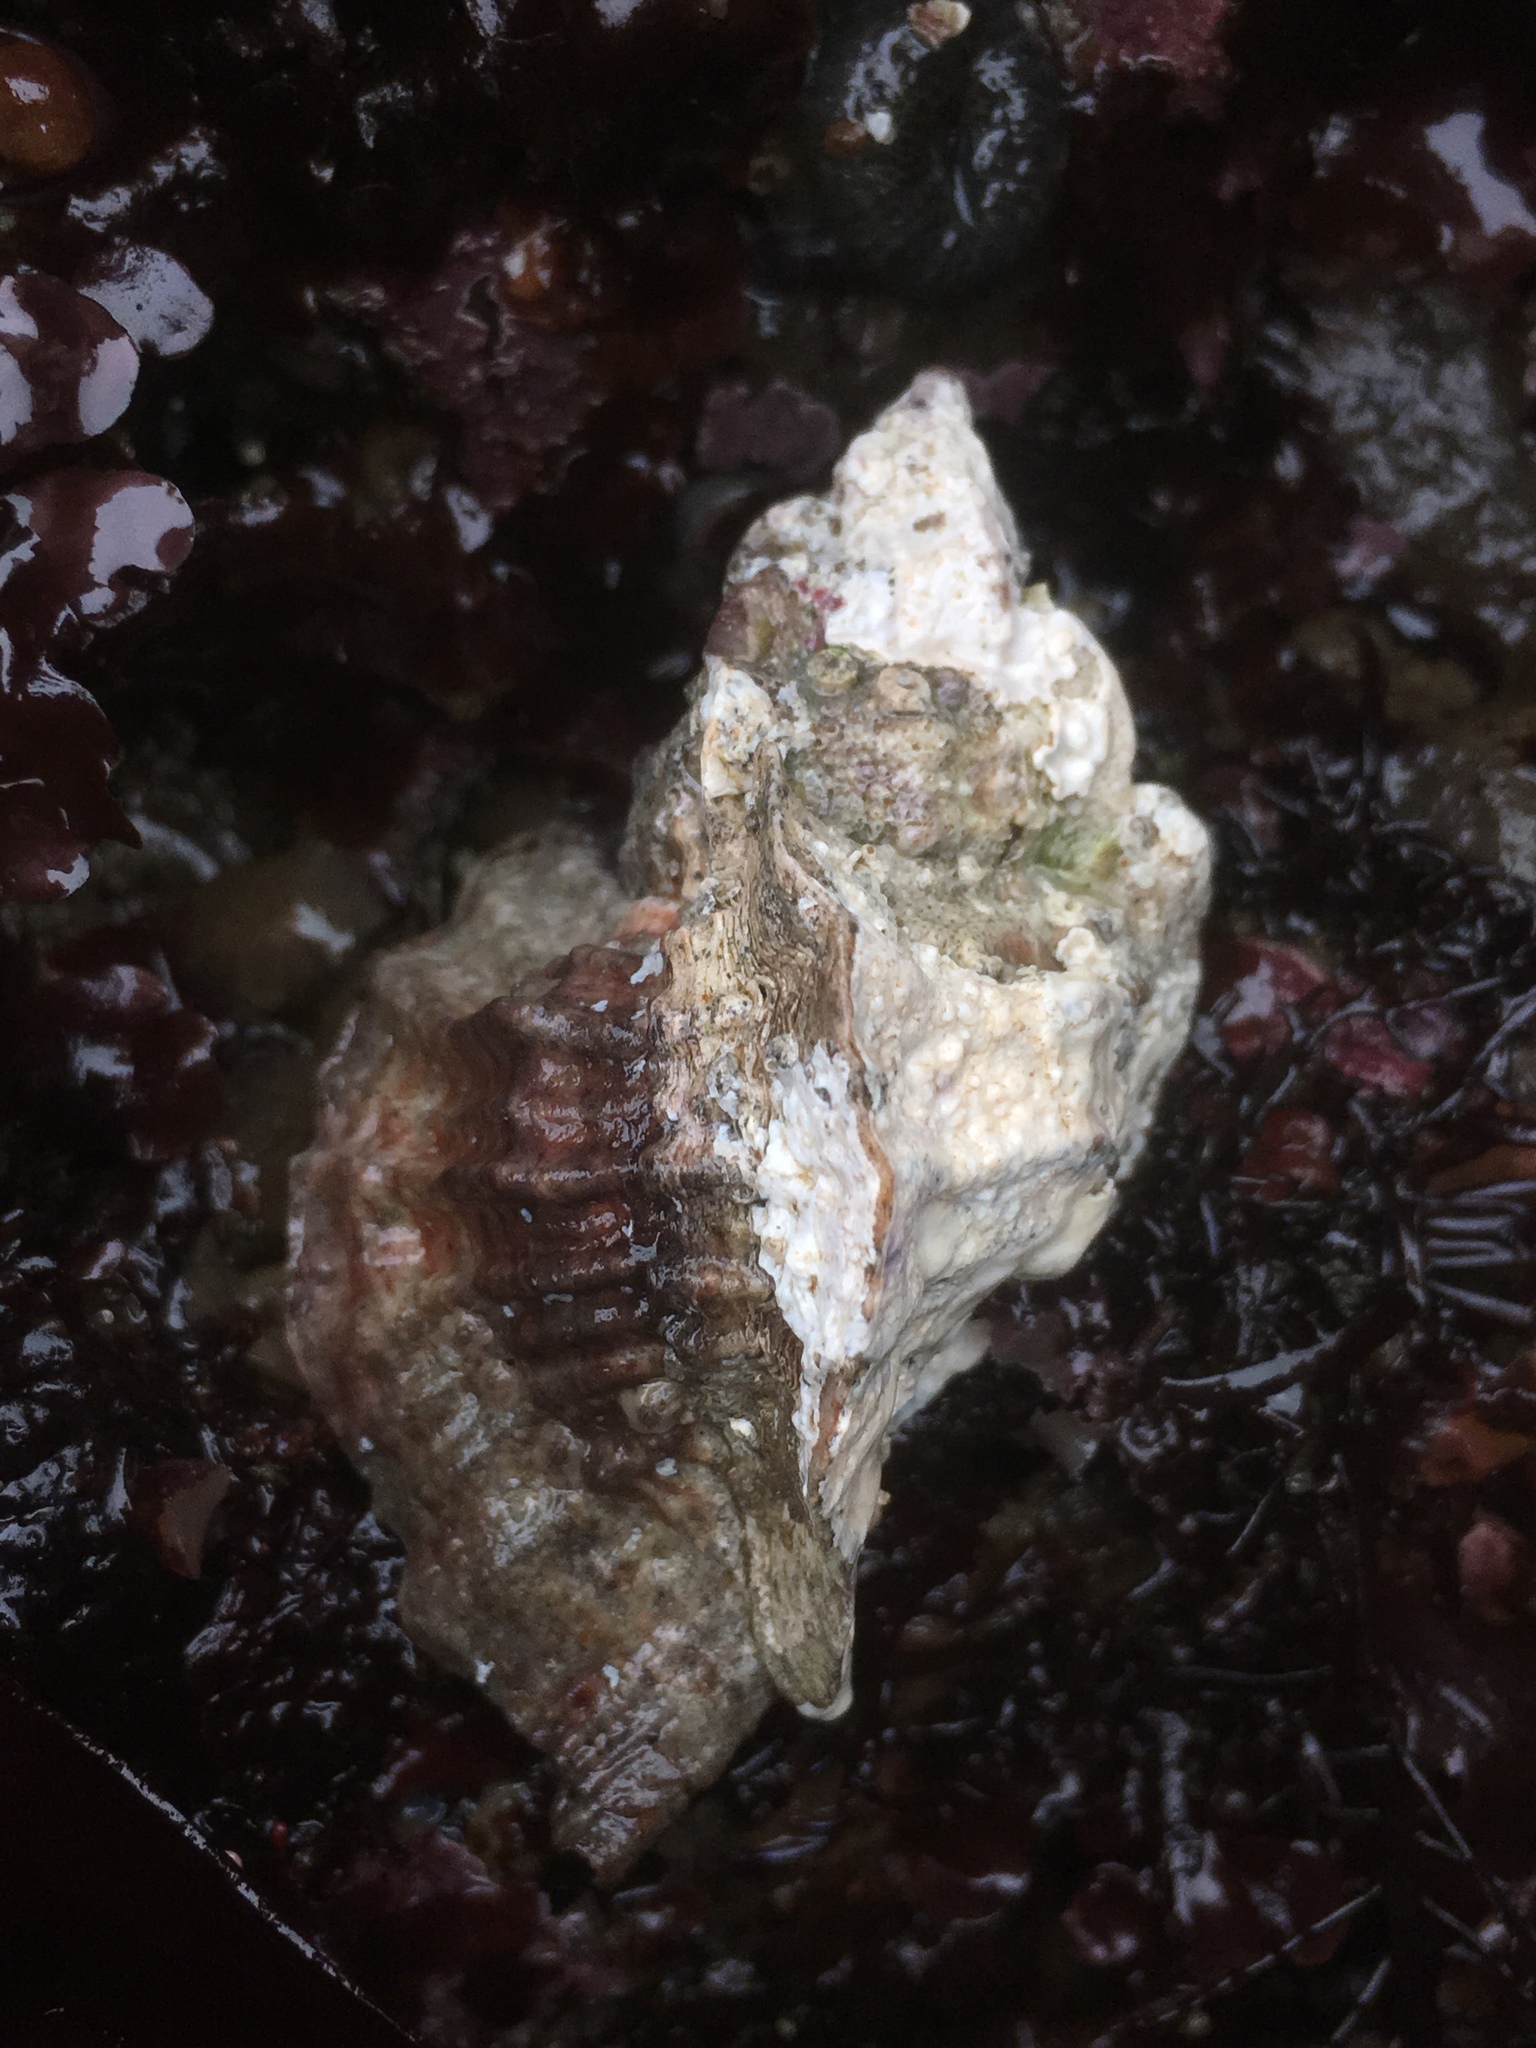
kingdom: Animalia
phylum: Mollusca
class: Gastropoda
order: Neogastropoda
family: Muricidae
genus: Ceratostoma
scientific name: Ceratostoma foliatum
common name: Foliate thorn purpura
